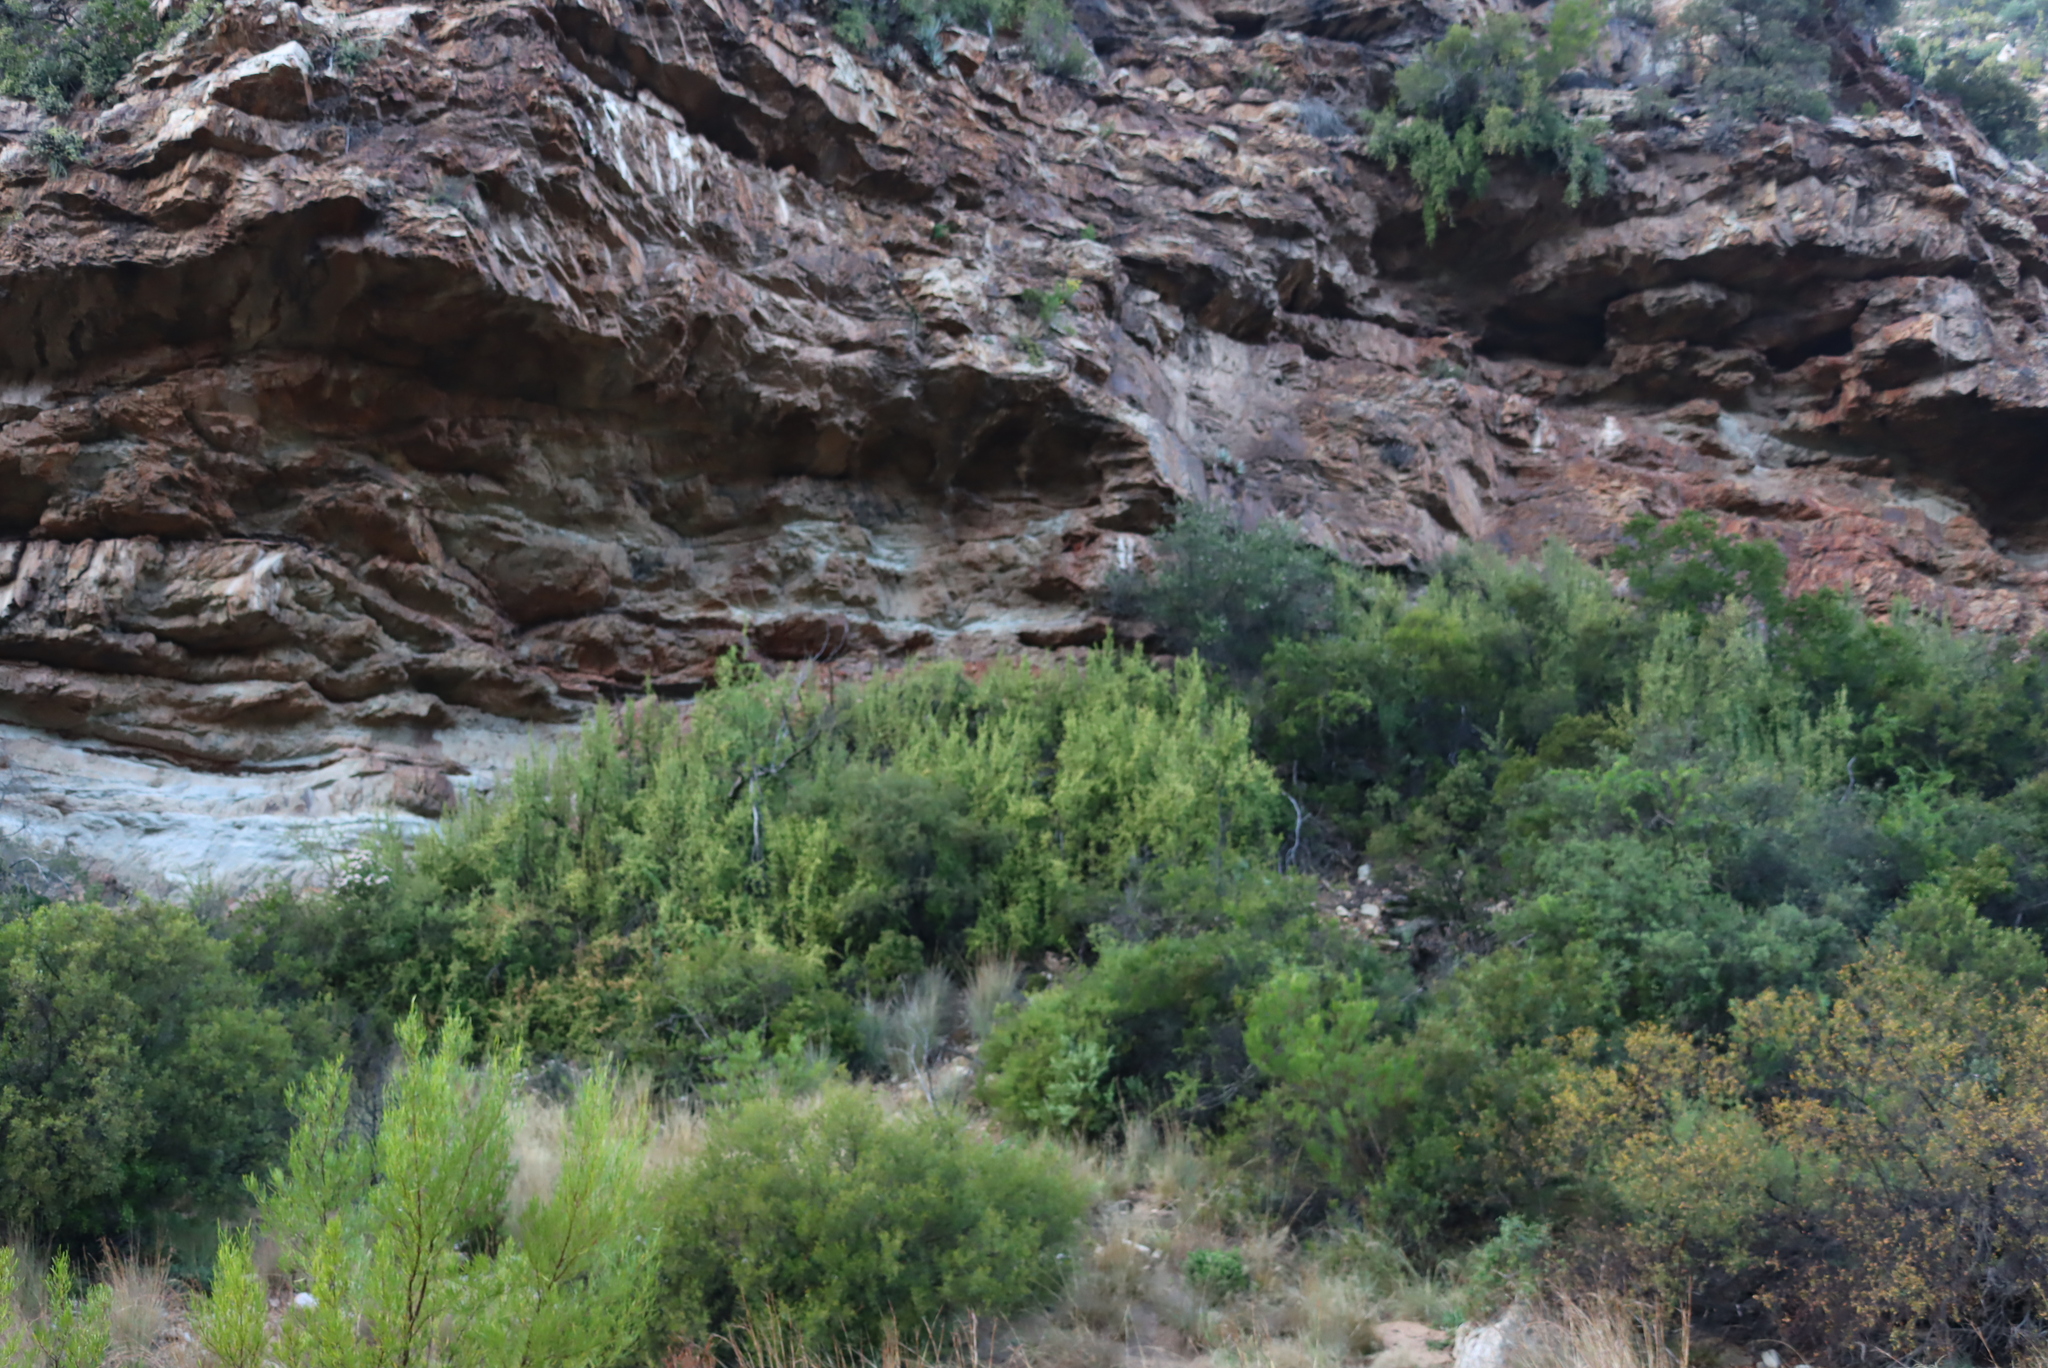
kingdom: Plantae
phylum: Tracheophyta
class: Magnoliopsida
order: Caryophyllales
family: Didiereaceae
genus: Portulacaria
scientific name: Portulacaria afra
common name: Elephant-bush
